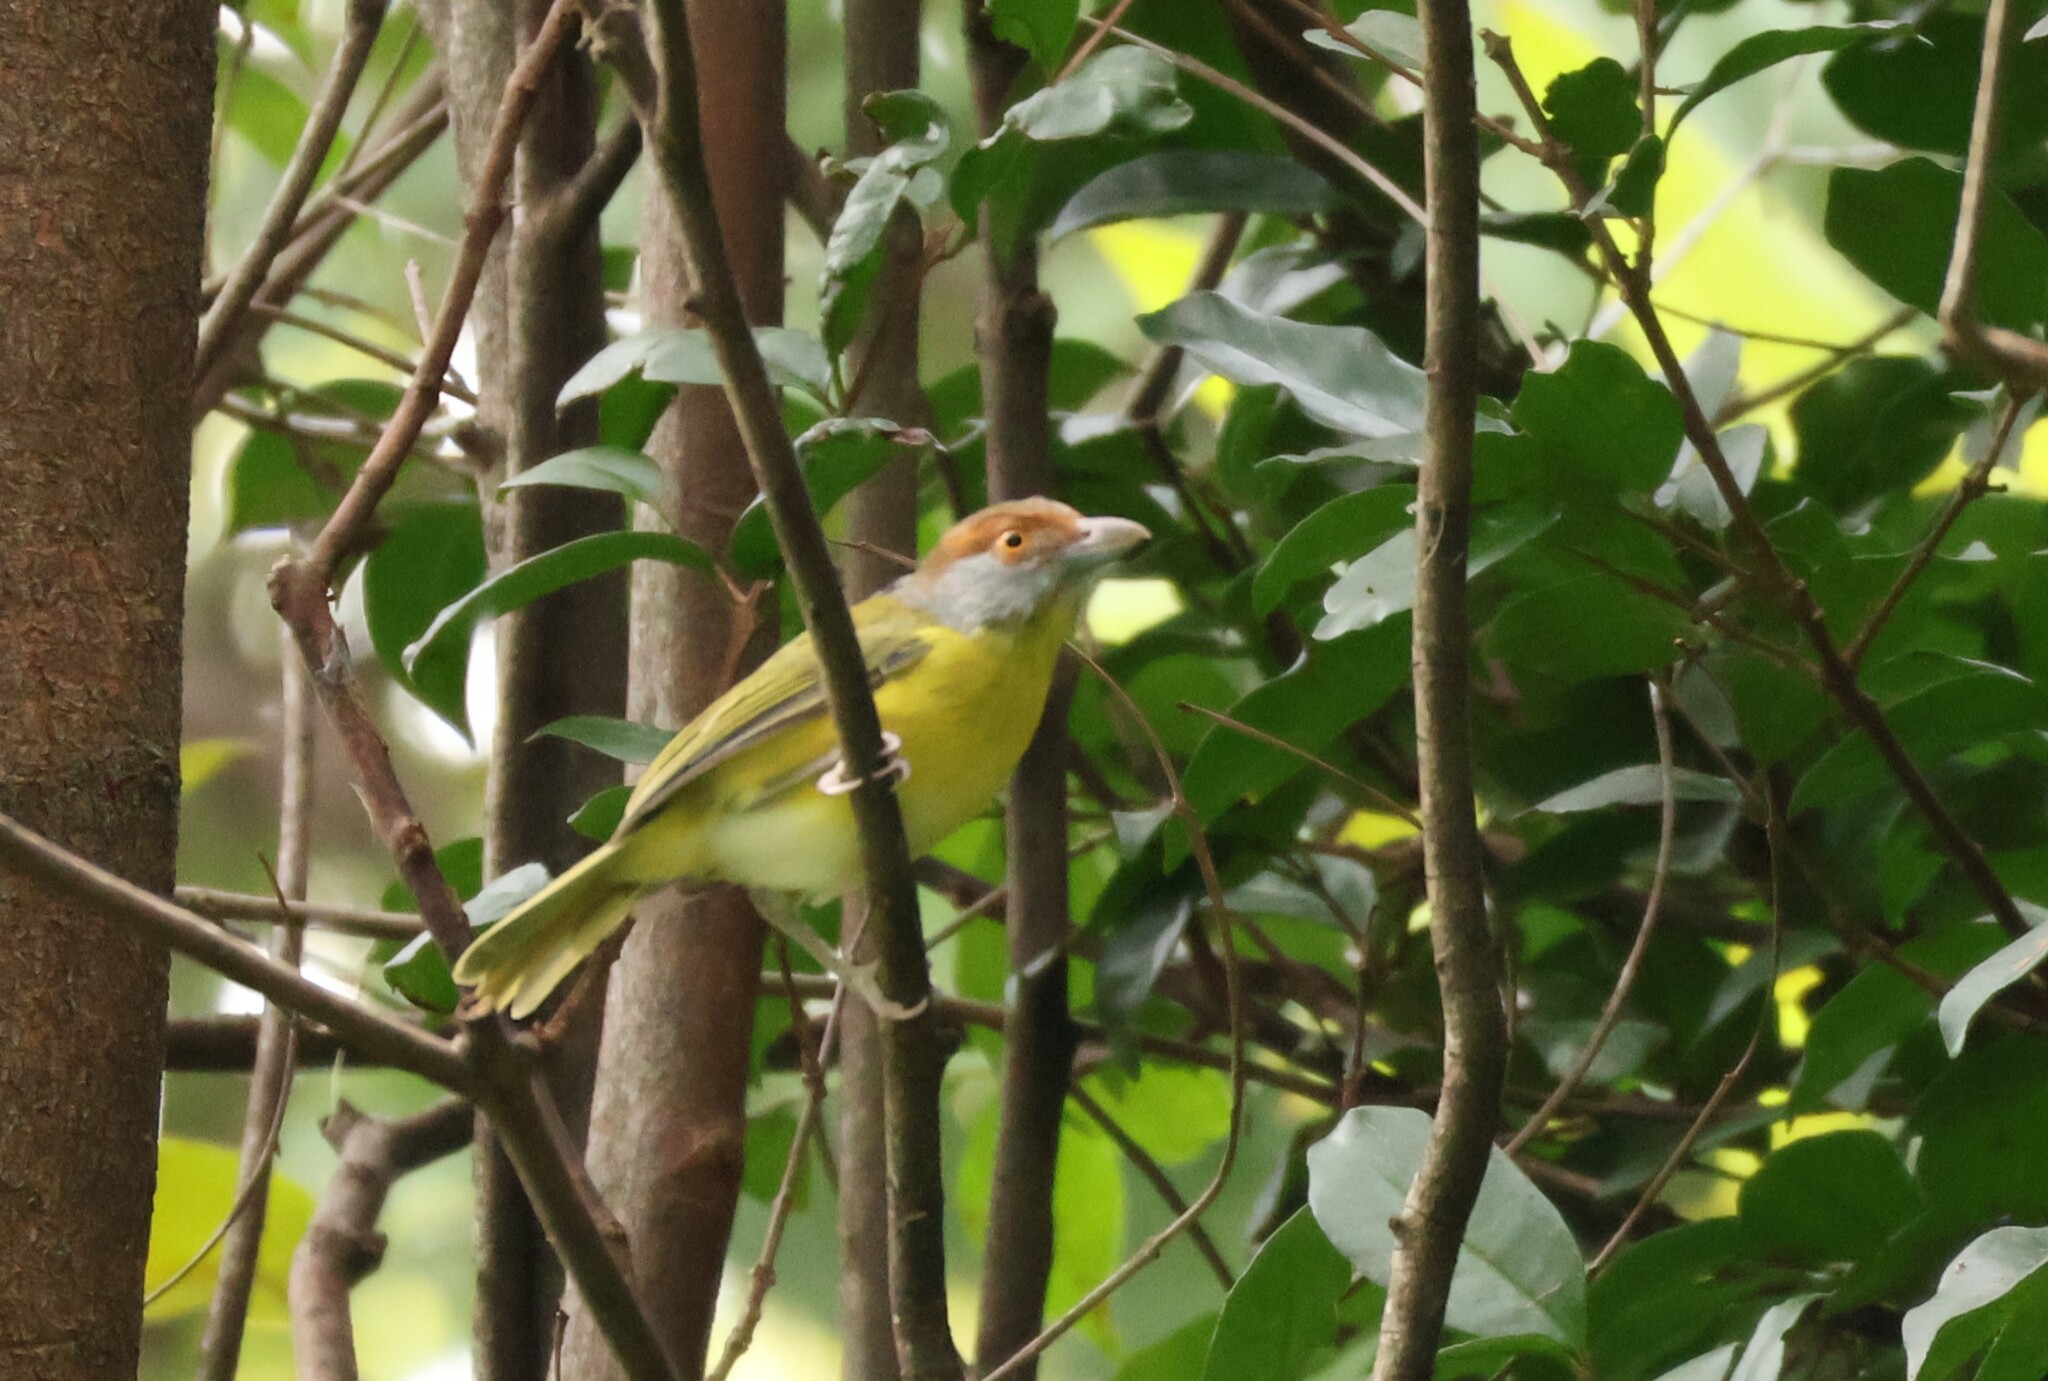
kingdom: Animalia
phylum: Chordata
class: Aves
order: Passeriformes
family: Vireonidae
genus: Cyclarhis
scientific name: Cyclarhis gujanensis
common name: Rufous-browed peppershrike
